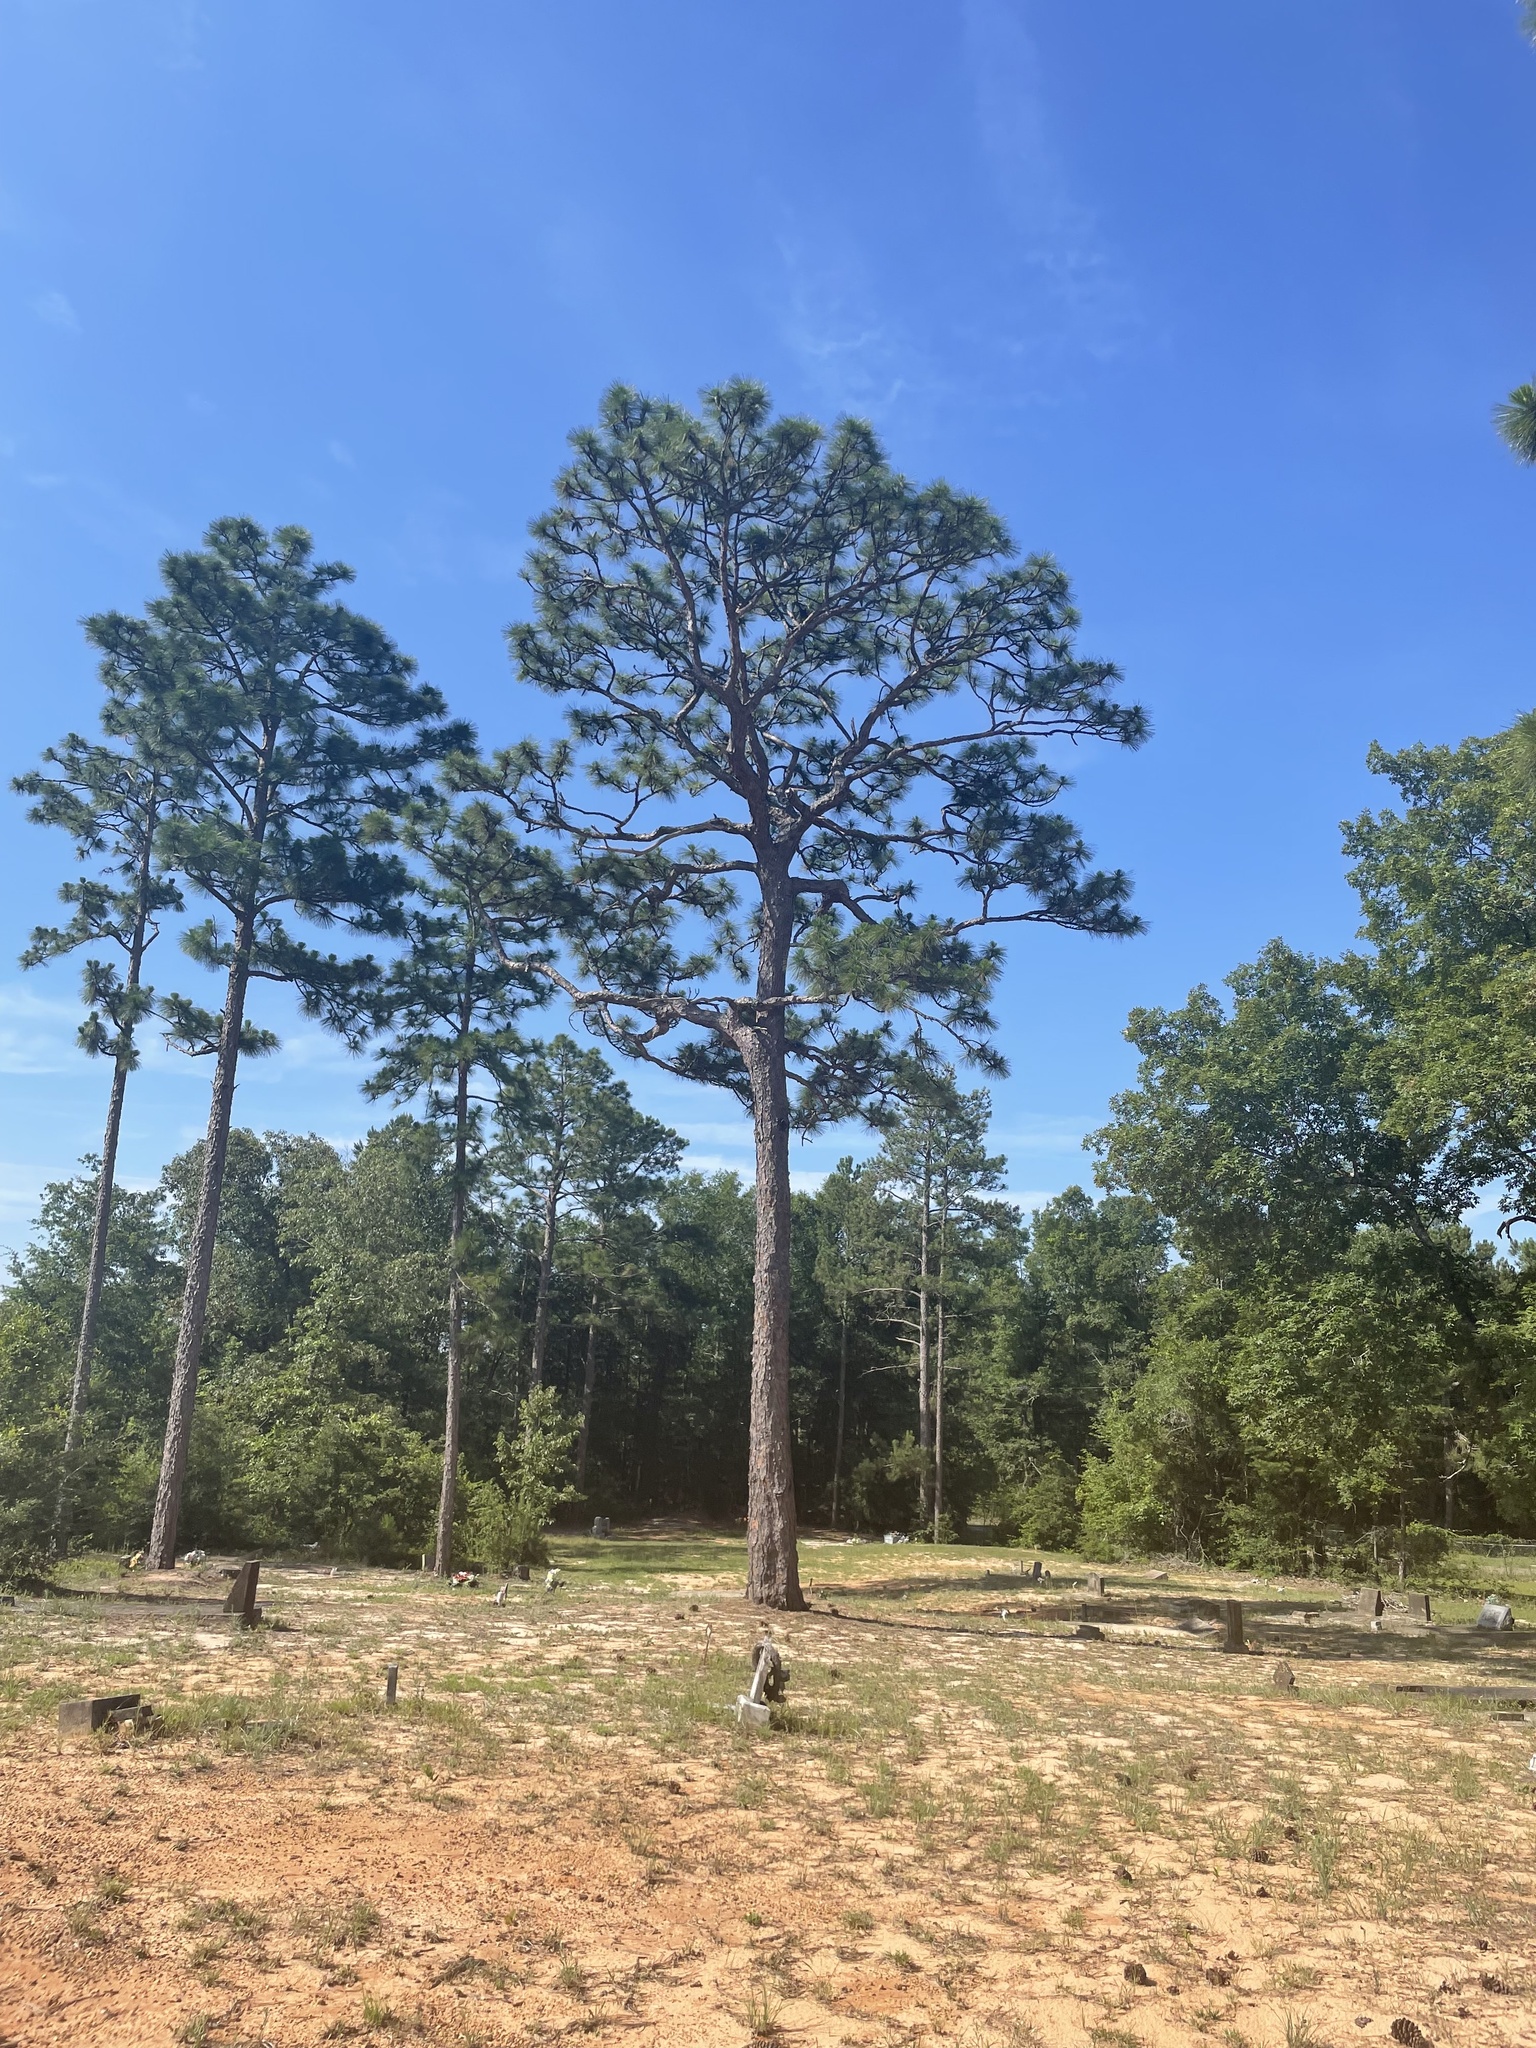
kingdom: Plantae
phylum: Tracheophyta
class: Pinopsida
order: Pinales
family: Pinaceae
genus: Pinus
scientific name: Pinus palustris
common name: Longleaf pine
